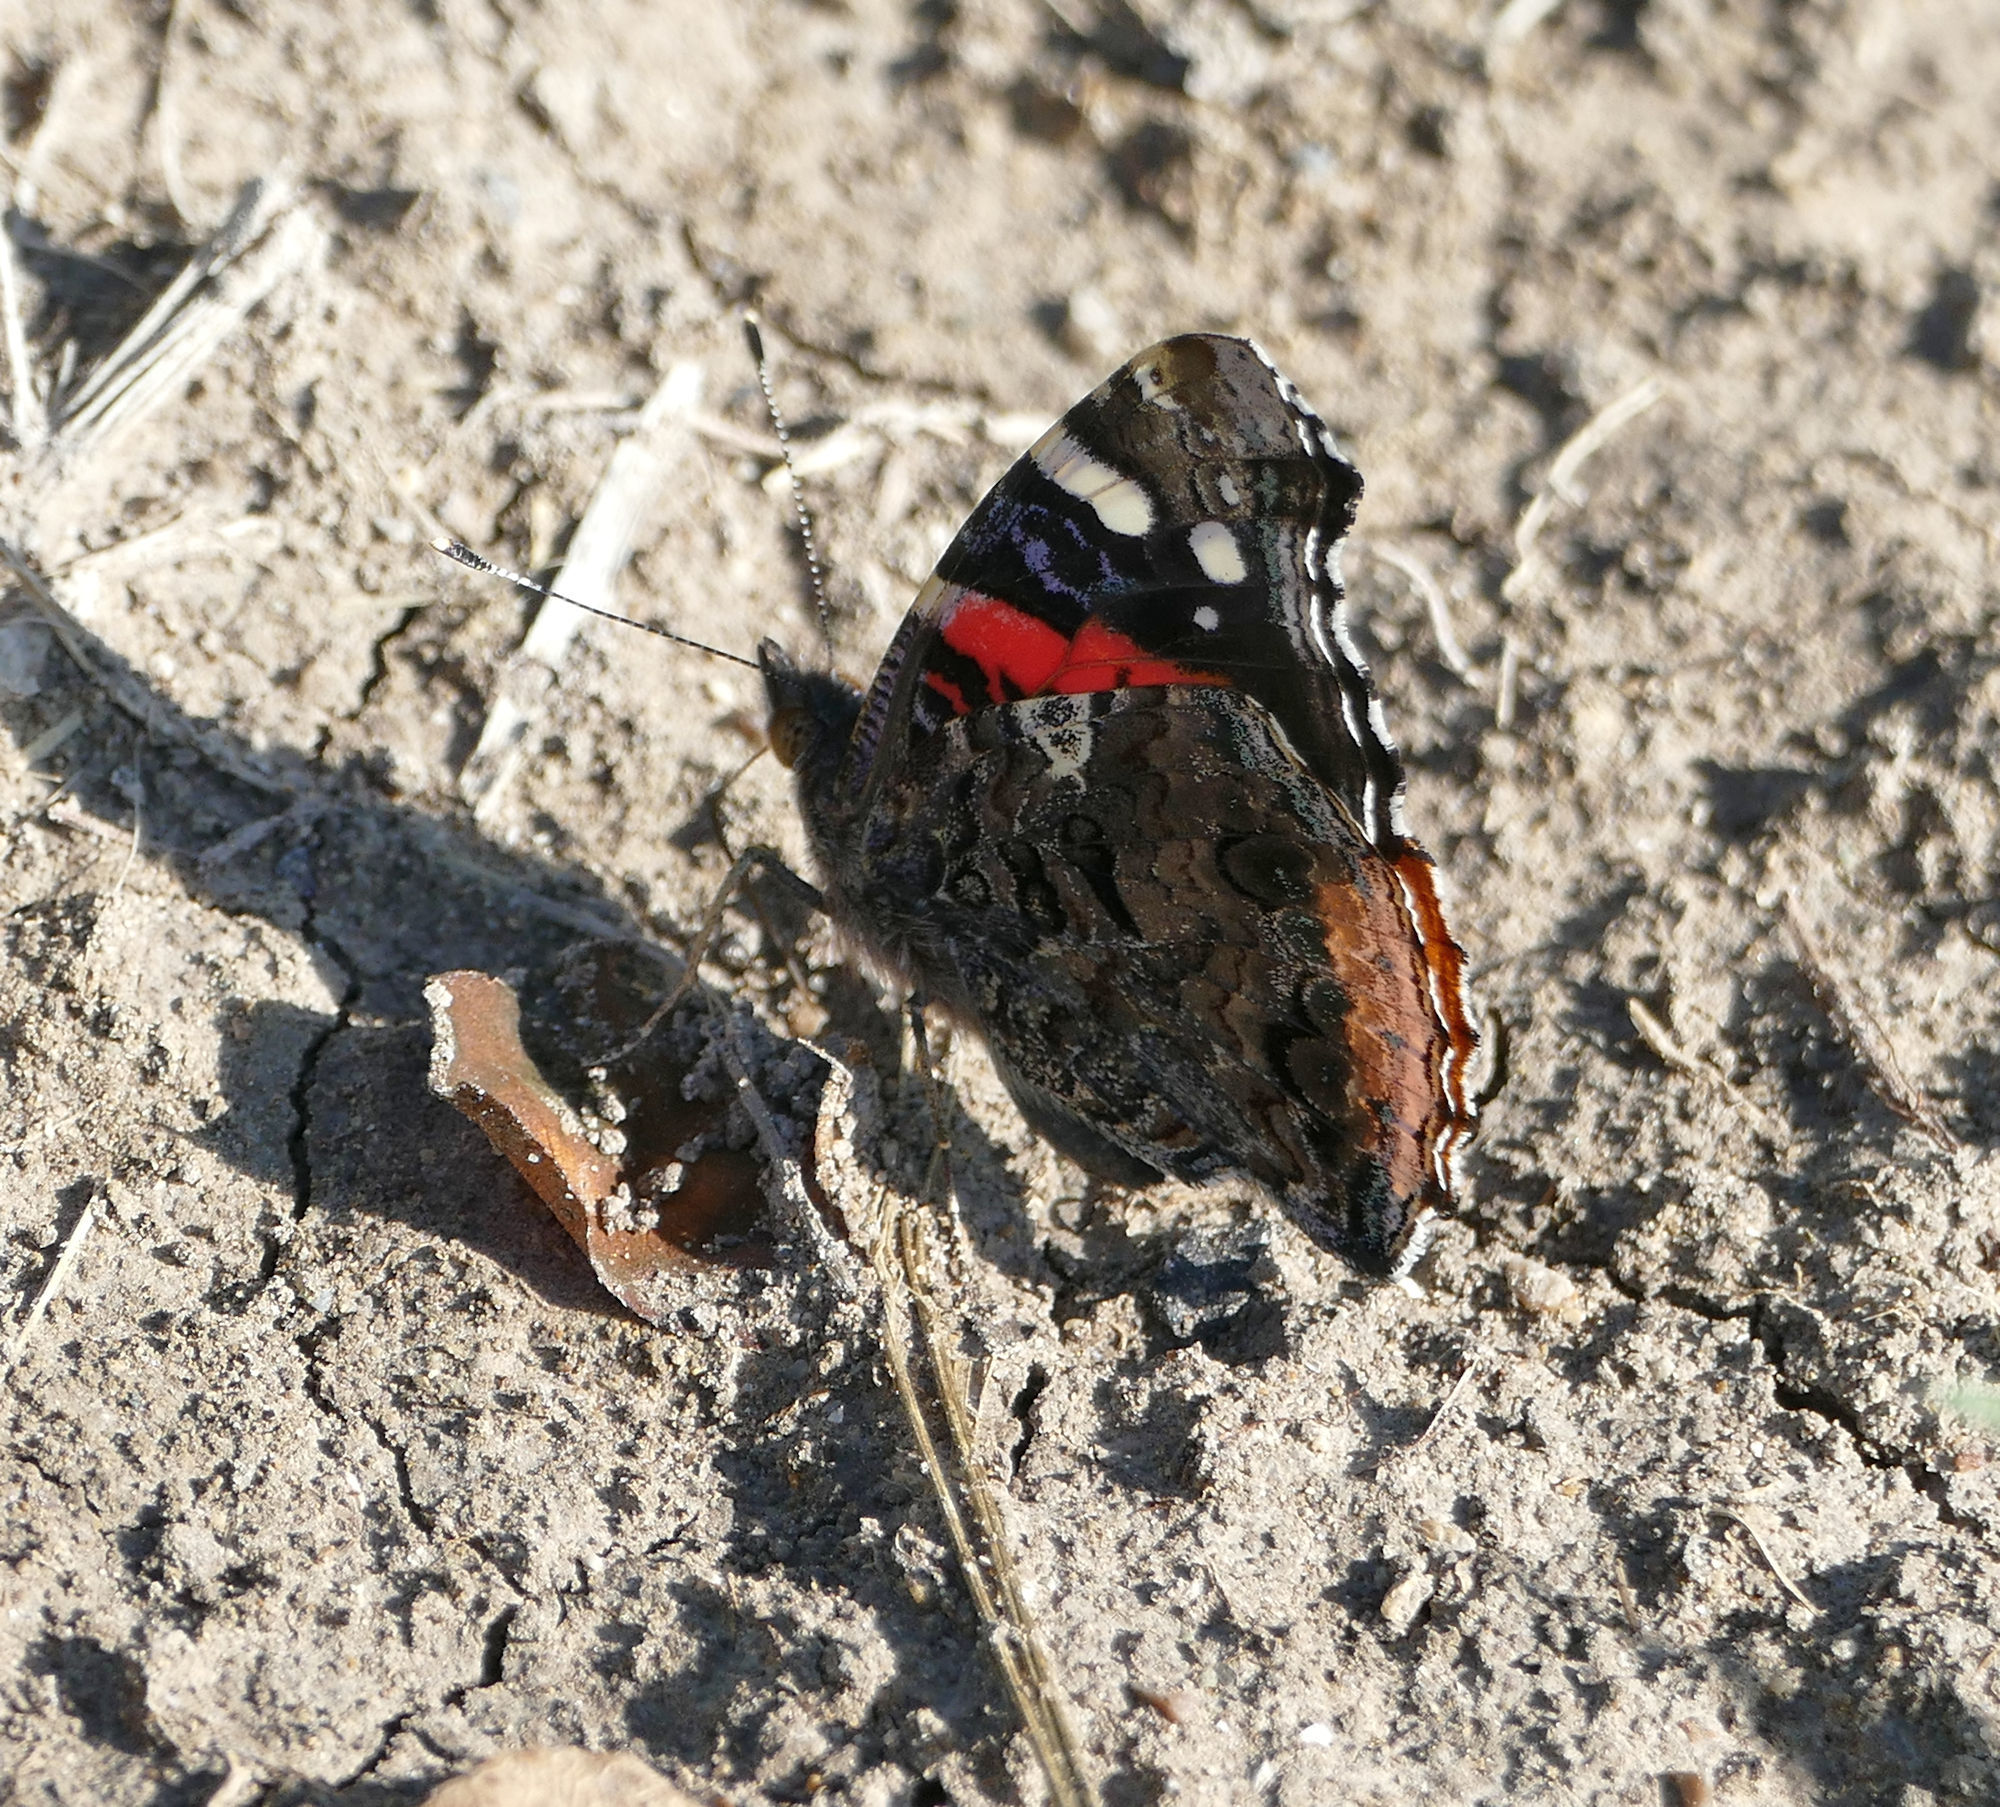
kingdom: Animalia
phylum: Arthropoda
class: Insecta
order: Lepidoptera
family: Nymphalidae
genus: Vanessa
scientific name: Vanessa atalanta
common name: Red admiral
